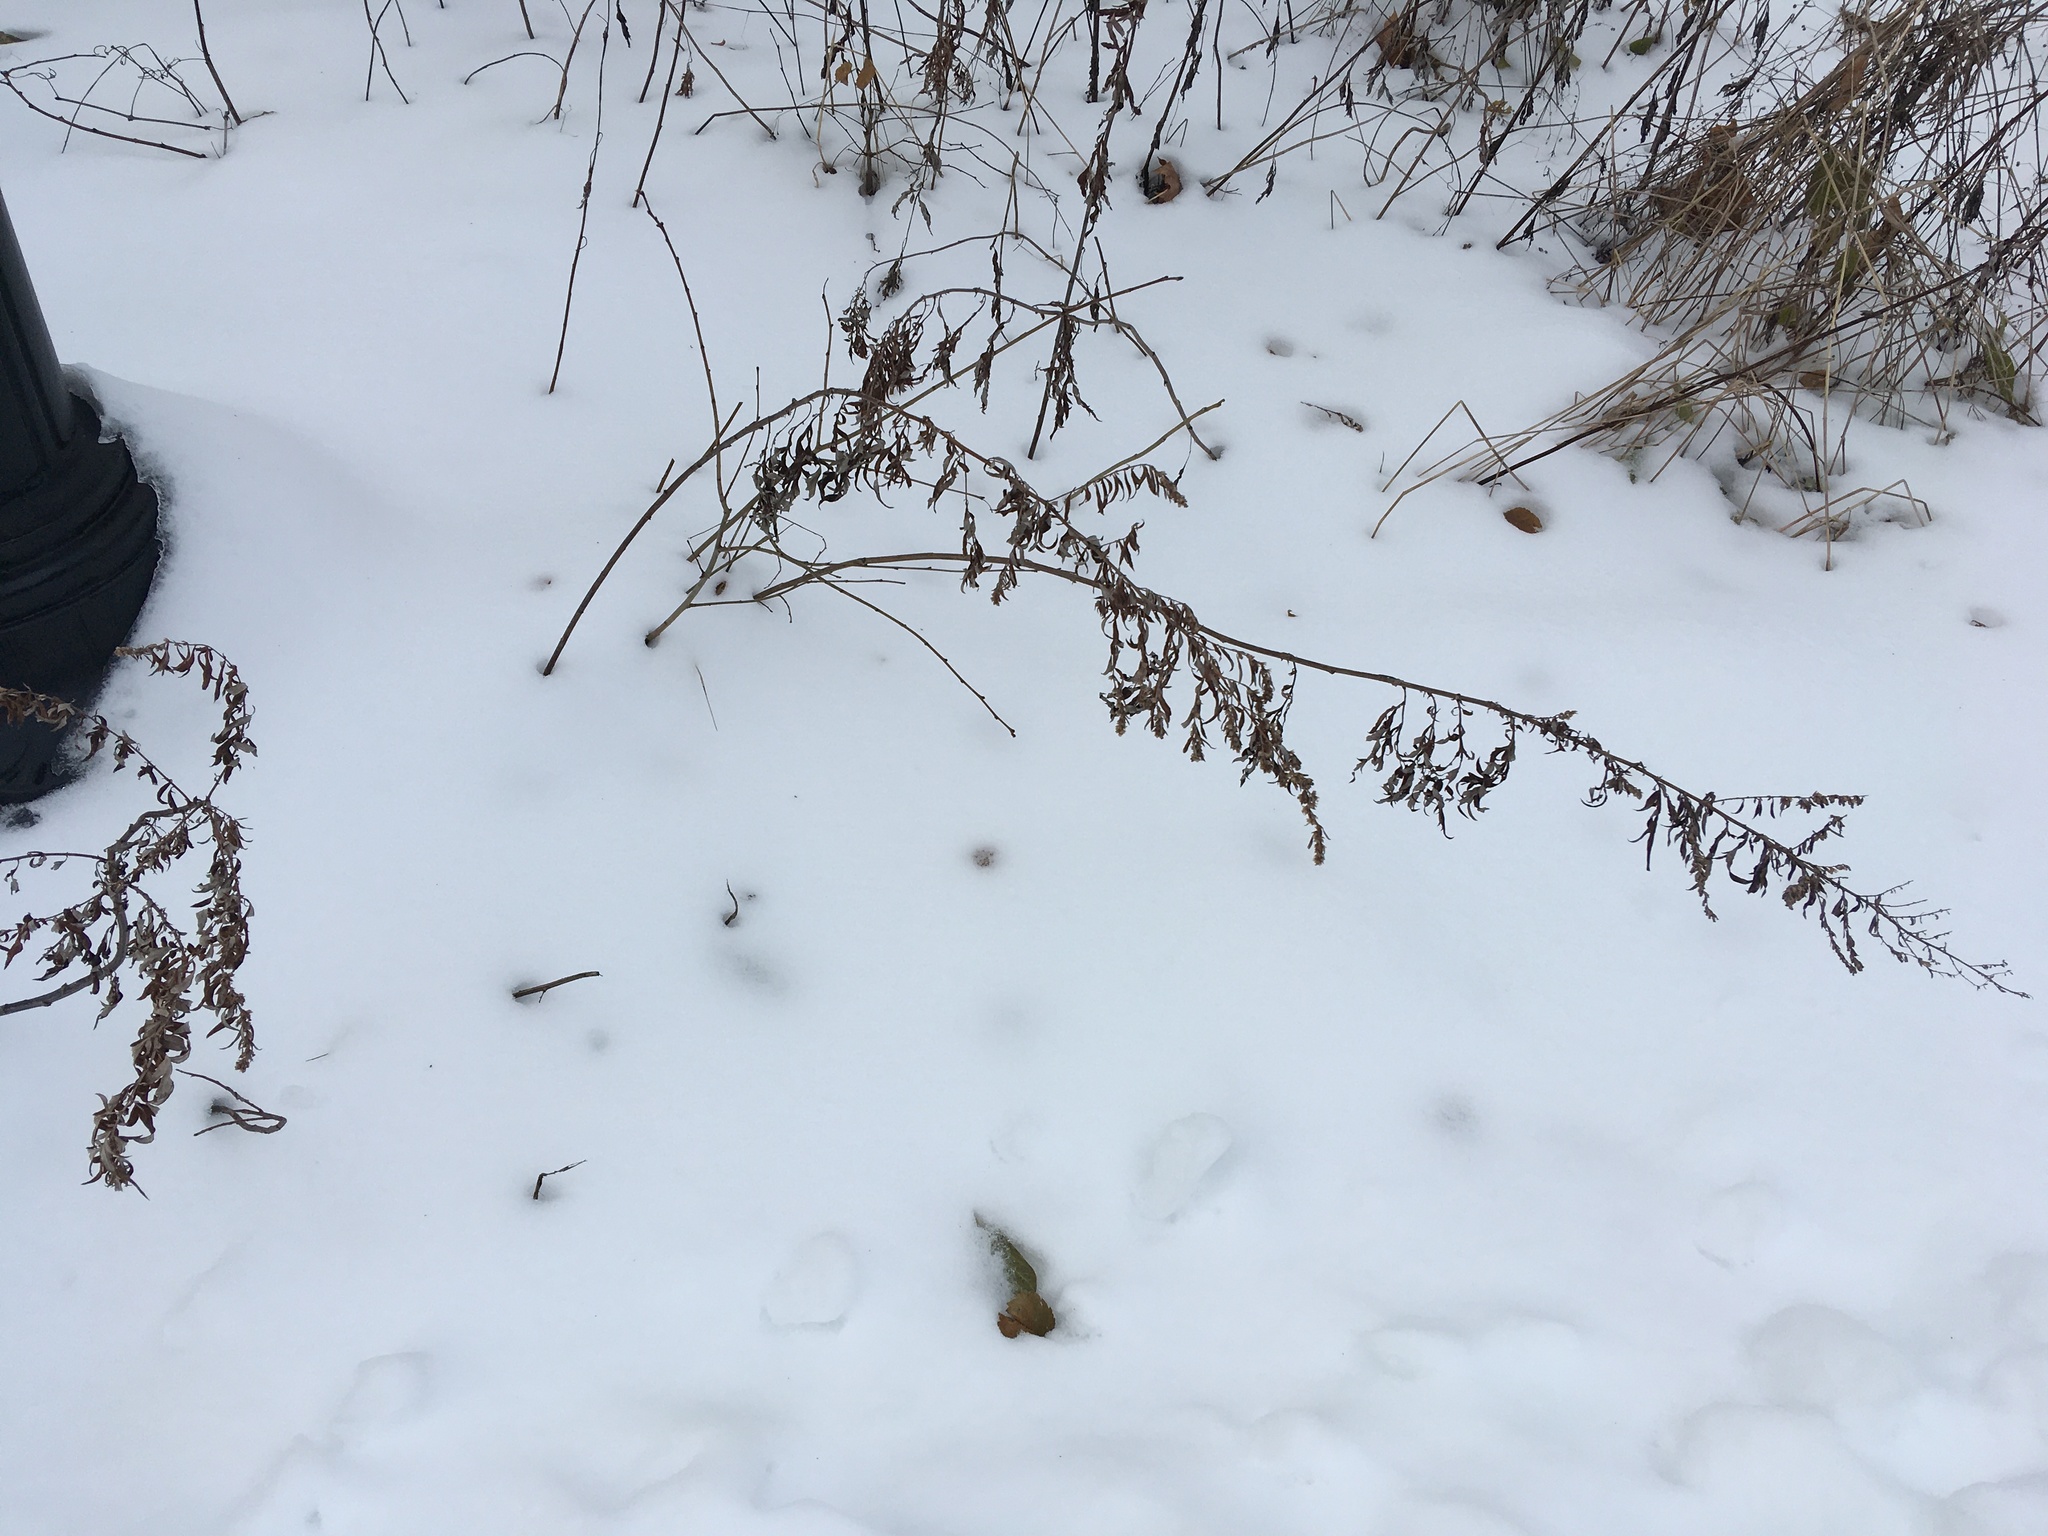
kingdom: Plantae
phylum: Tracheophyta
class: Magnoliopsida
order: Asterales
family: Asteraceae
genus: Artemisia
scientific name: Artemisia vulgaris
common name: Mugwort
